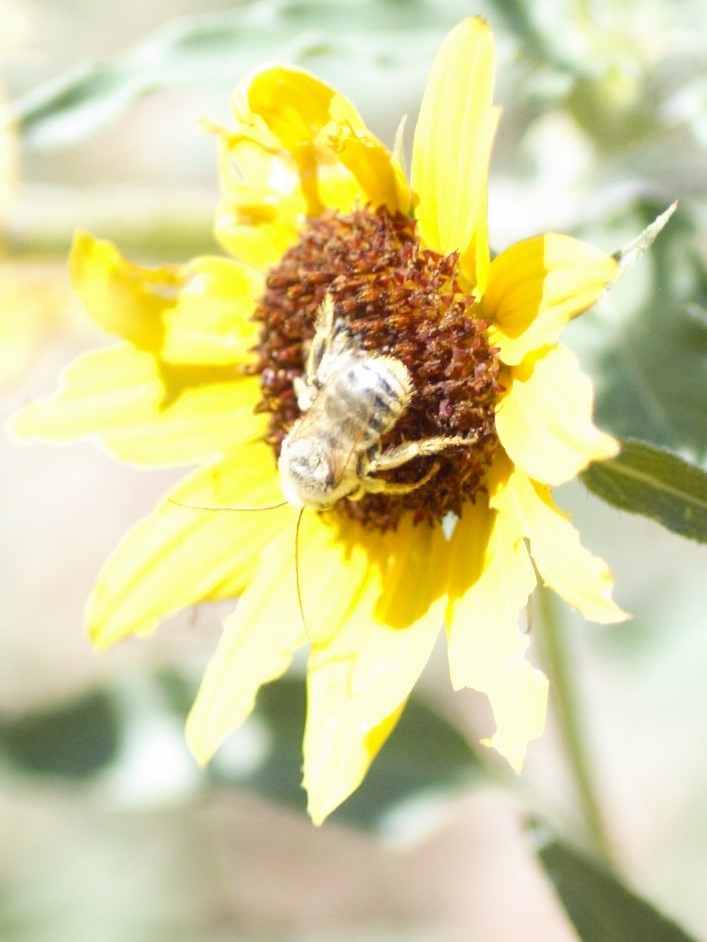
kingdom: Animalia
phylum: Arthropoda
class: Insecta
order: Hymenoptera
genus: Eumelissodes
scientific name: Eumelissodes
